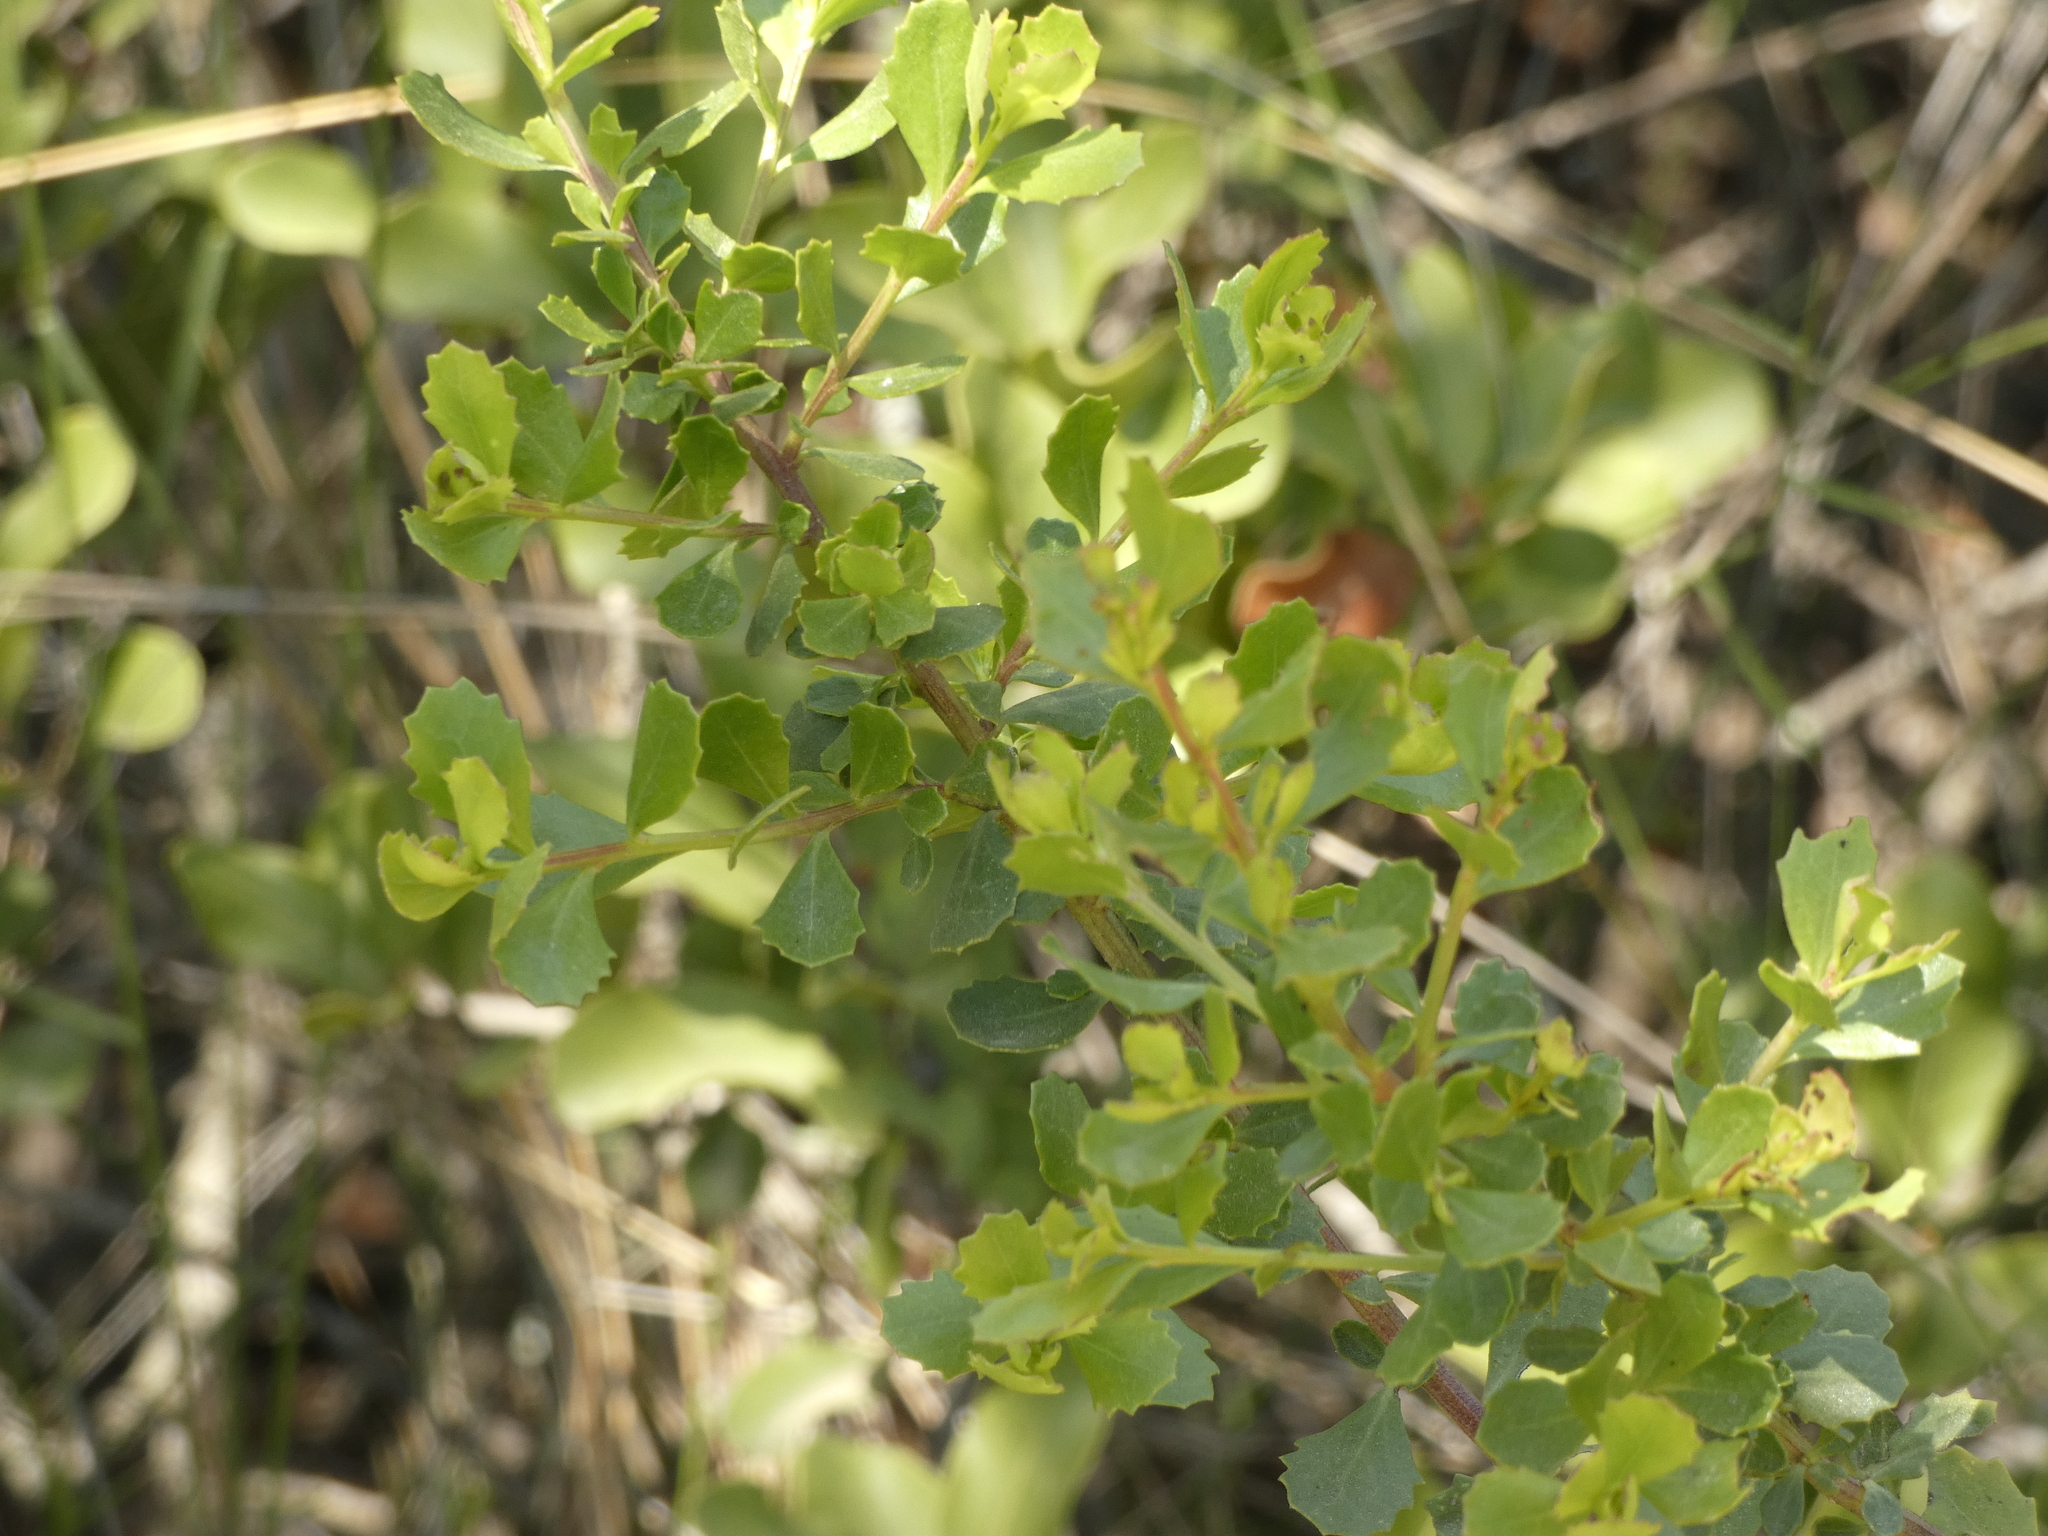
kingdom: Plantae
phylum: Tracheophyta
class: Magnoliopsida
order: Asterales
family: Asteraceae
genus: Baccharis
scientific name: Baccharis rhomboidalis
